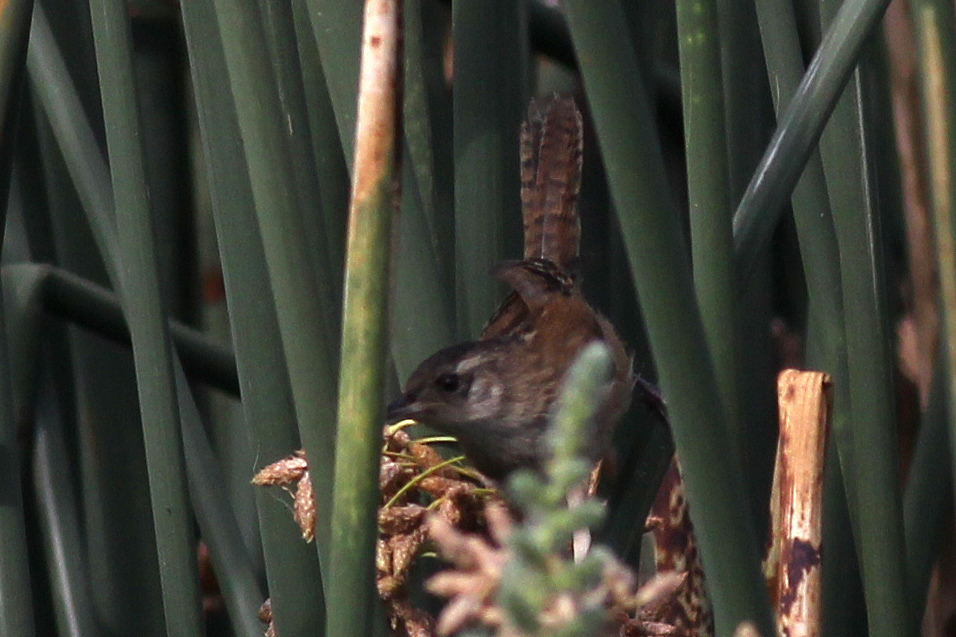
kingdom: Animalia
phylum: Chordata
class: Aves
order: Passeriformes
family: Troglodytidae
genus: Cistothorus
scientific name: Cistothorus palustris
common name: Marsh wren
